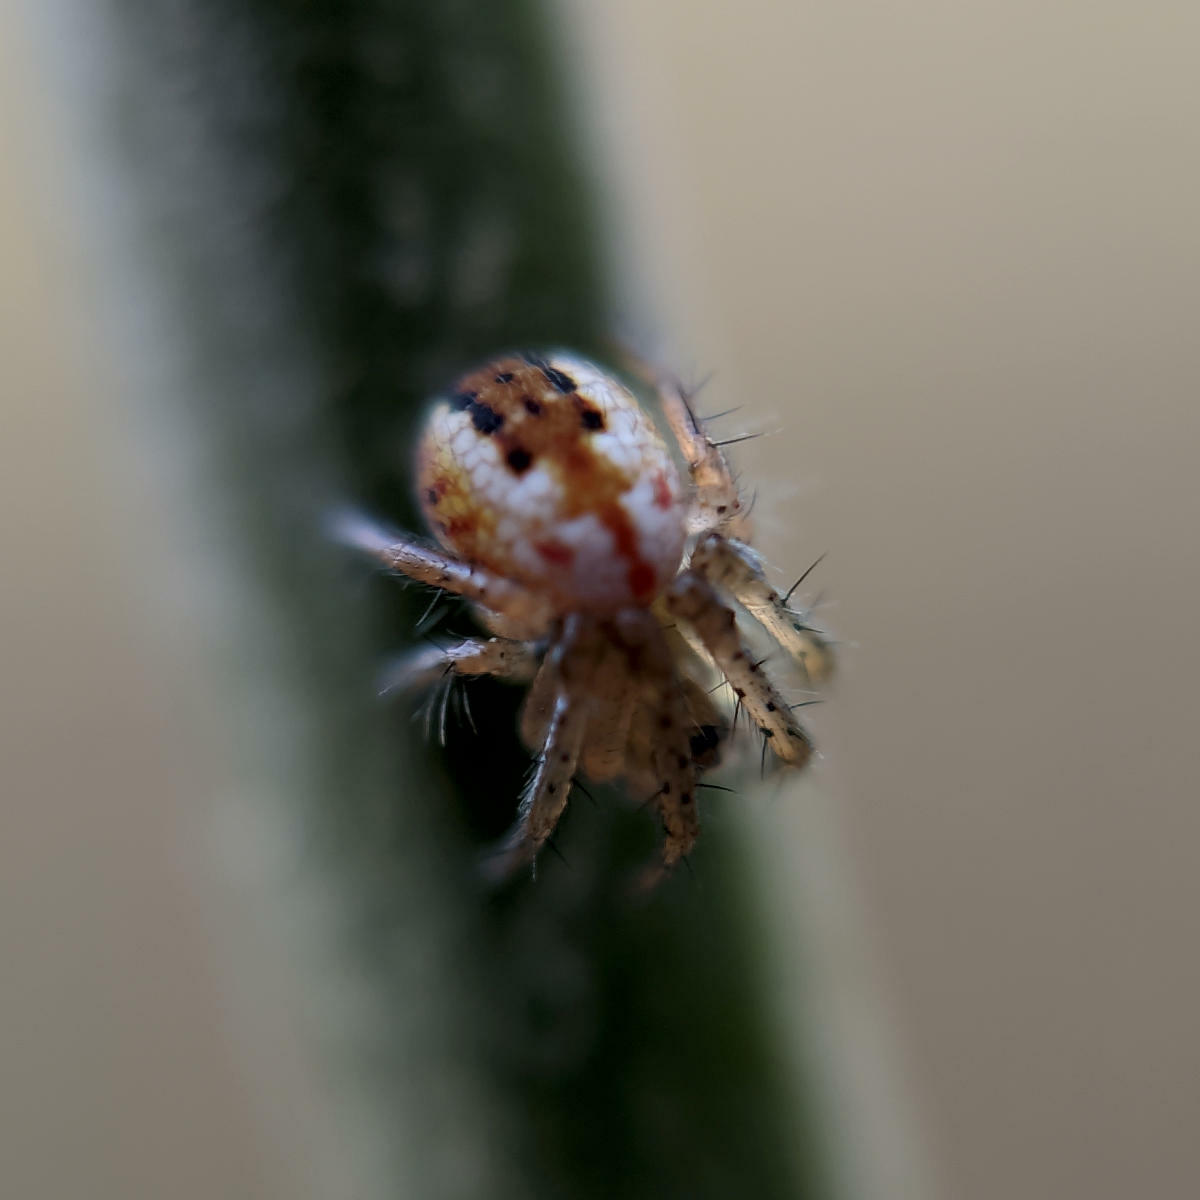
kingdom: Animalia
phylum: Arthropoda
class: Arachnida
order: Araneae
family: Araneidae
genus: Mangora
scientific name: Mangora acalypha
